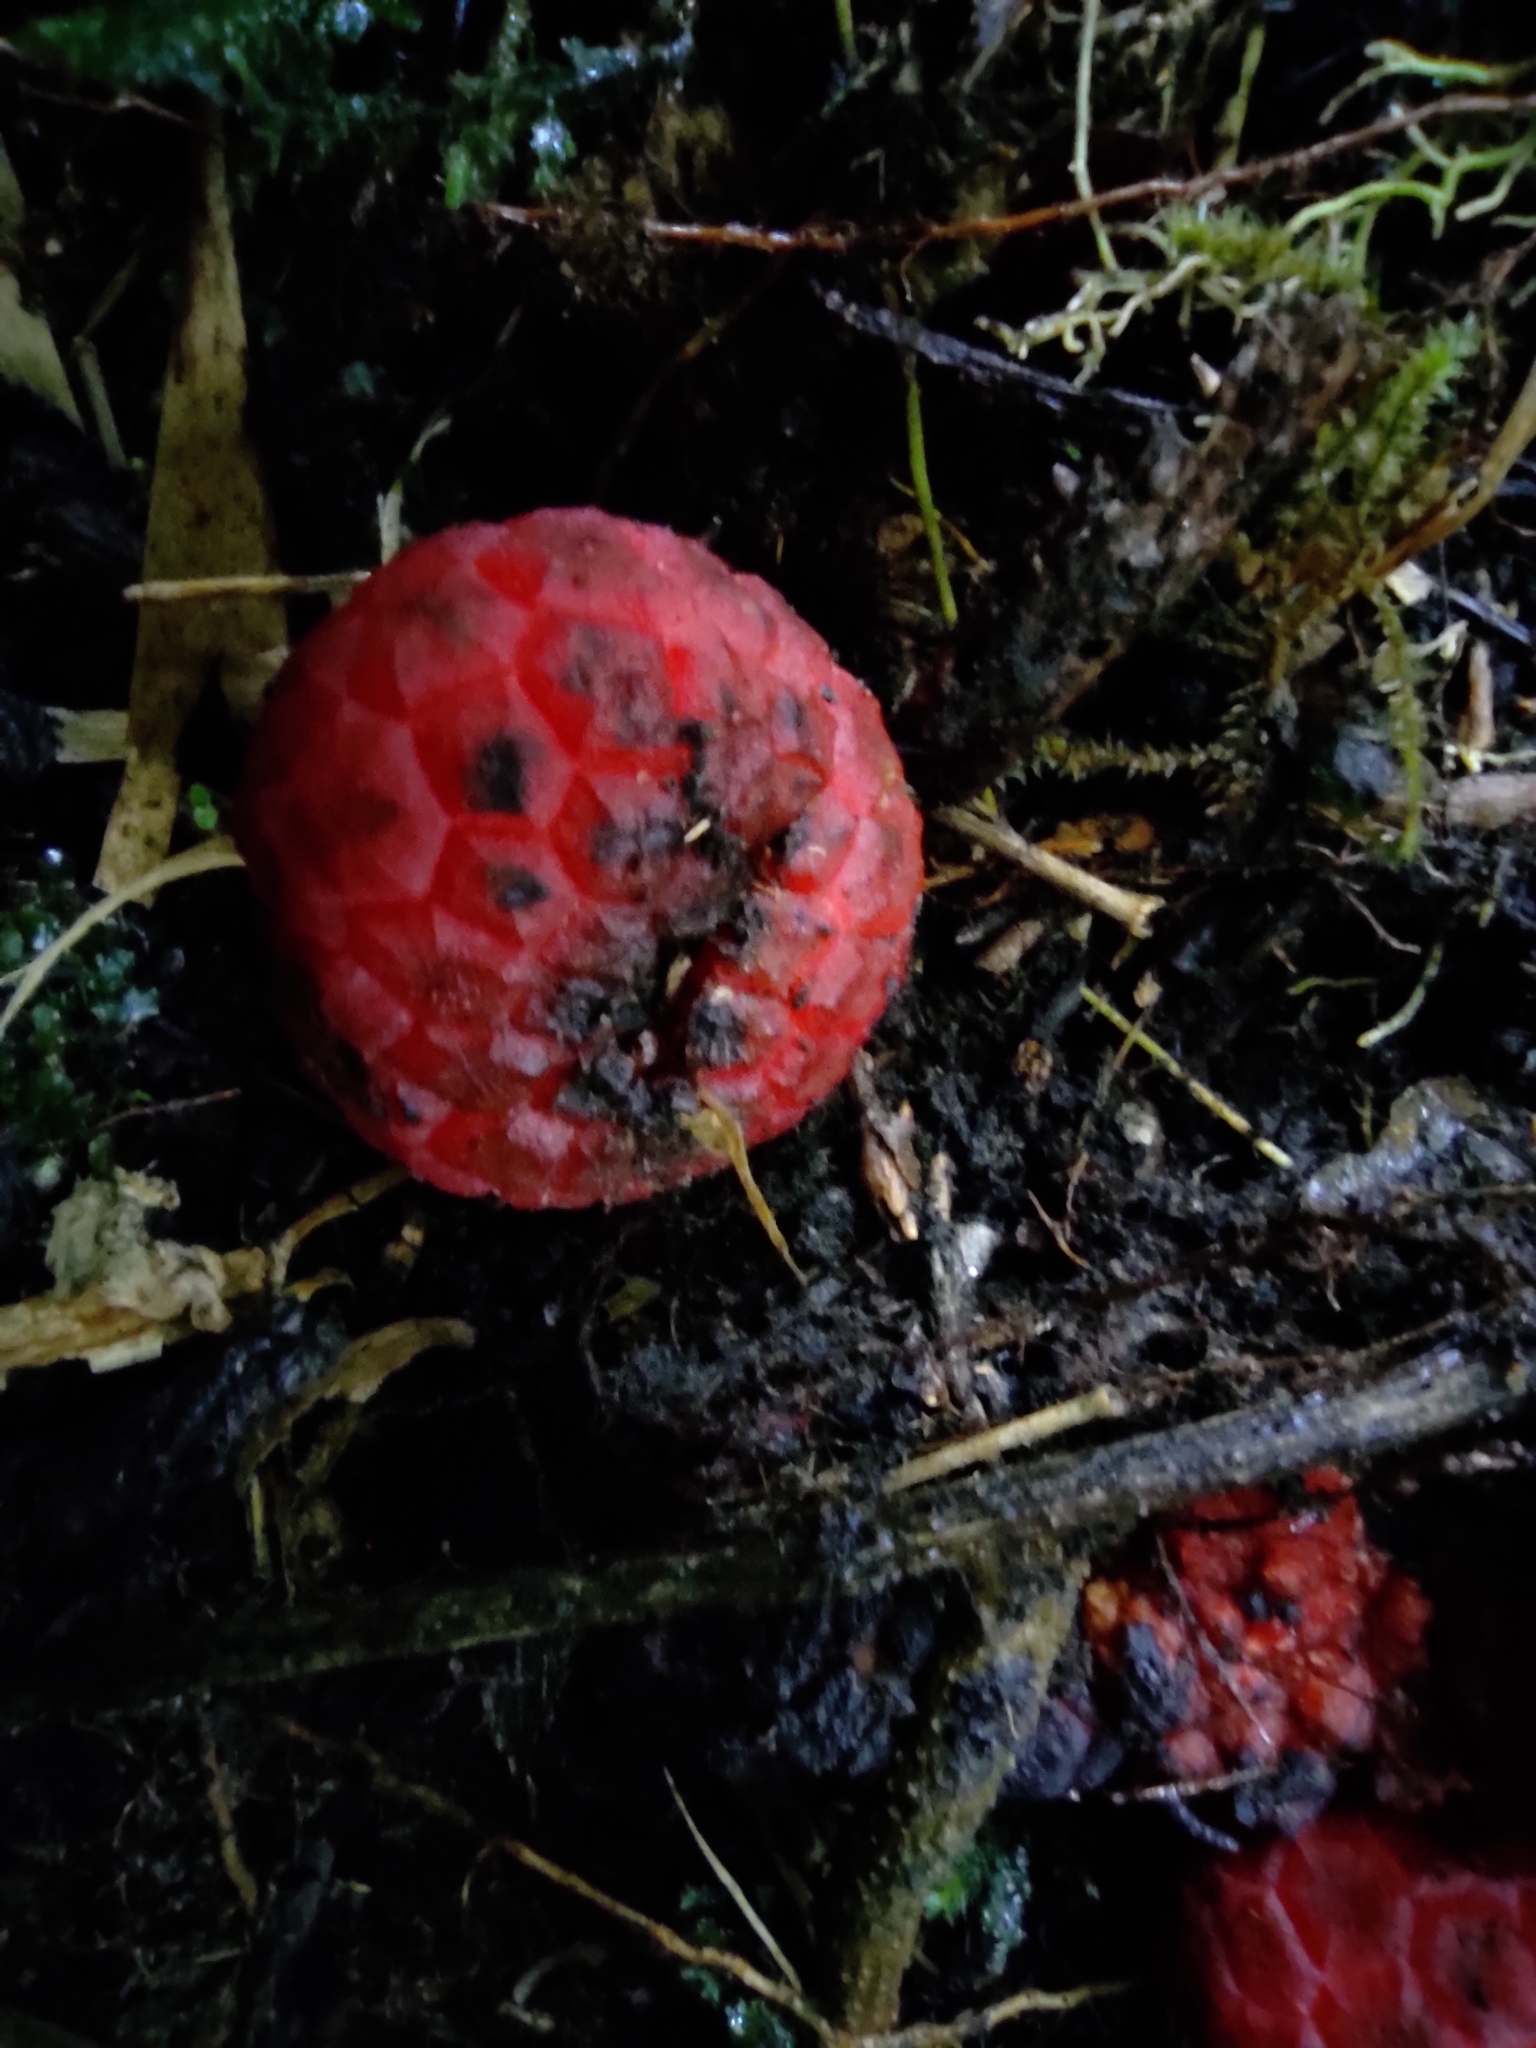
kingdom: Plantae
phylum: Tracheophyta
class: Magnoliopsida
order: Santalales
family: Balanophoraceae
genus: Corynaea
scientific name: Corynaea crassa
